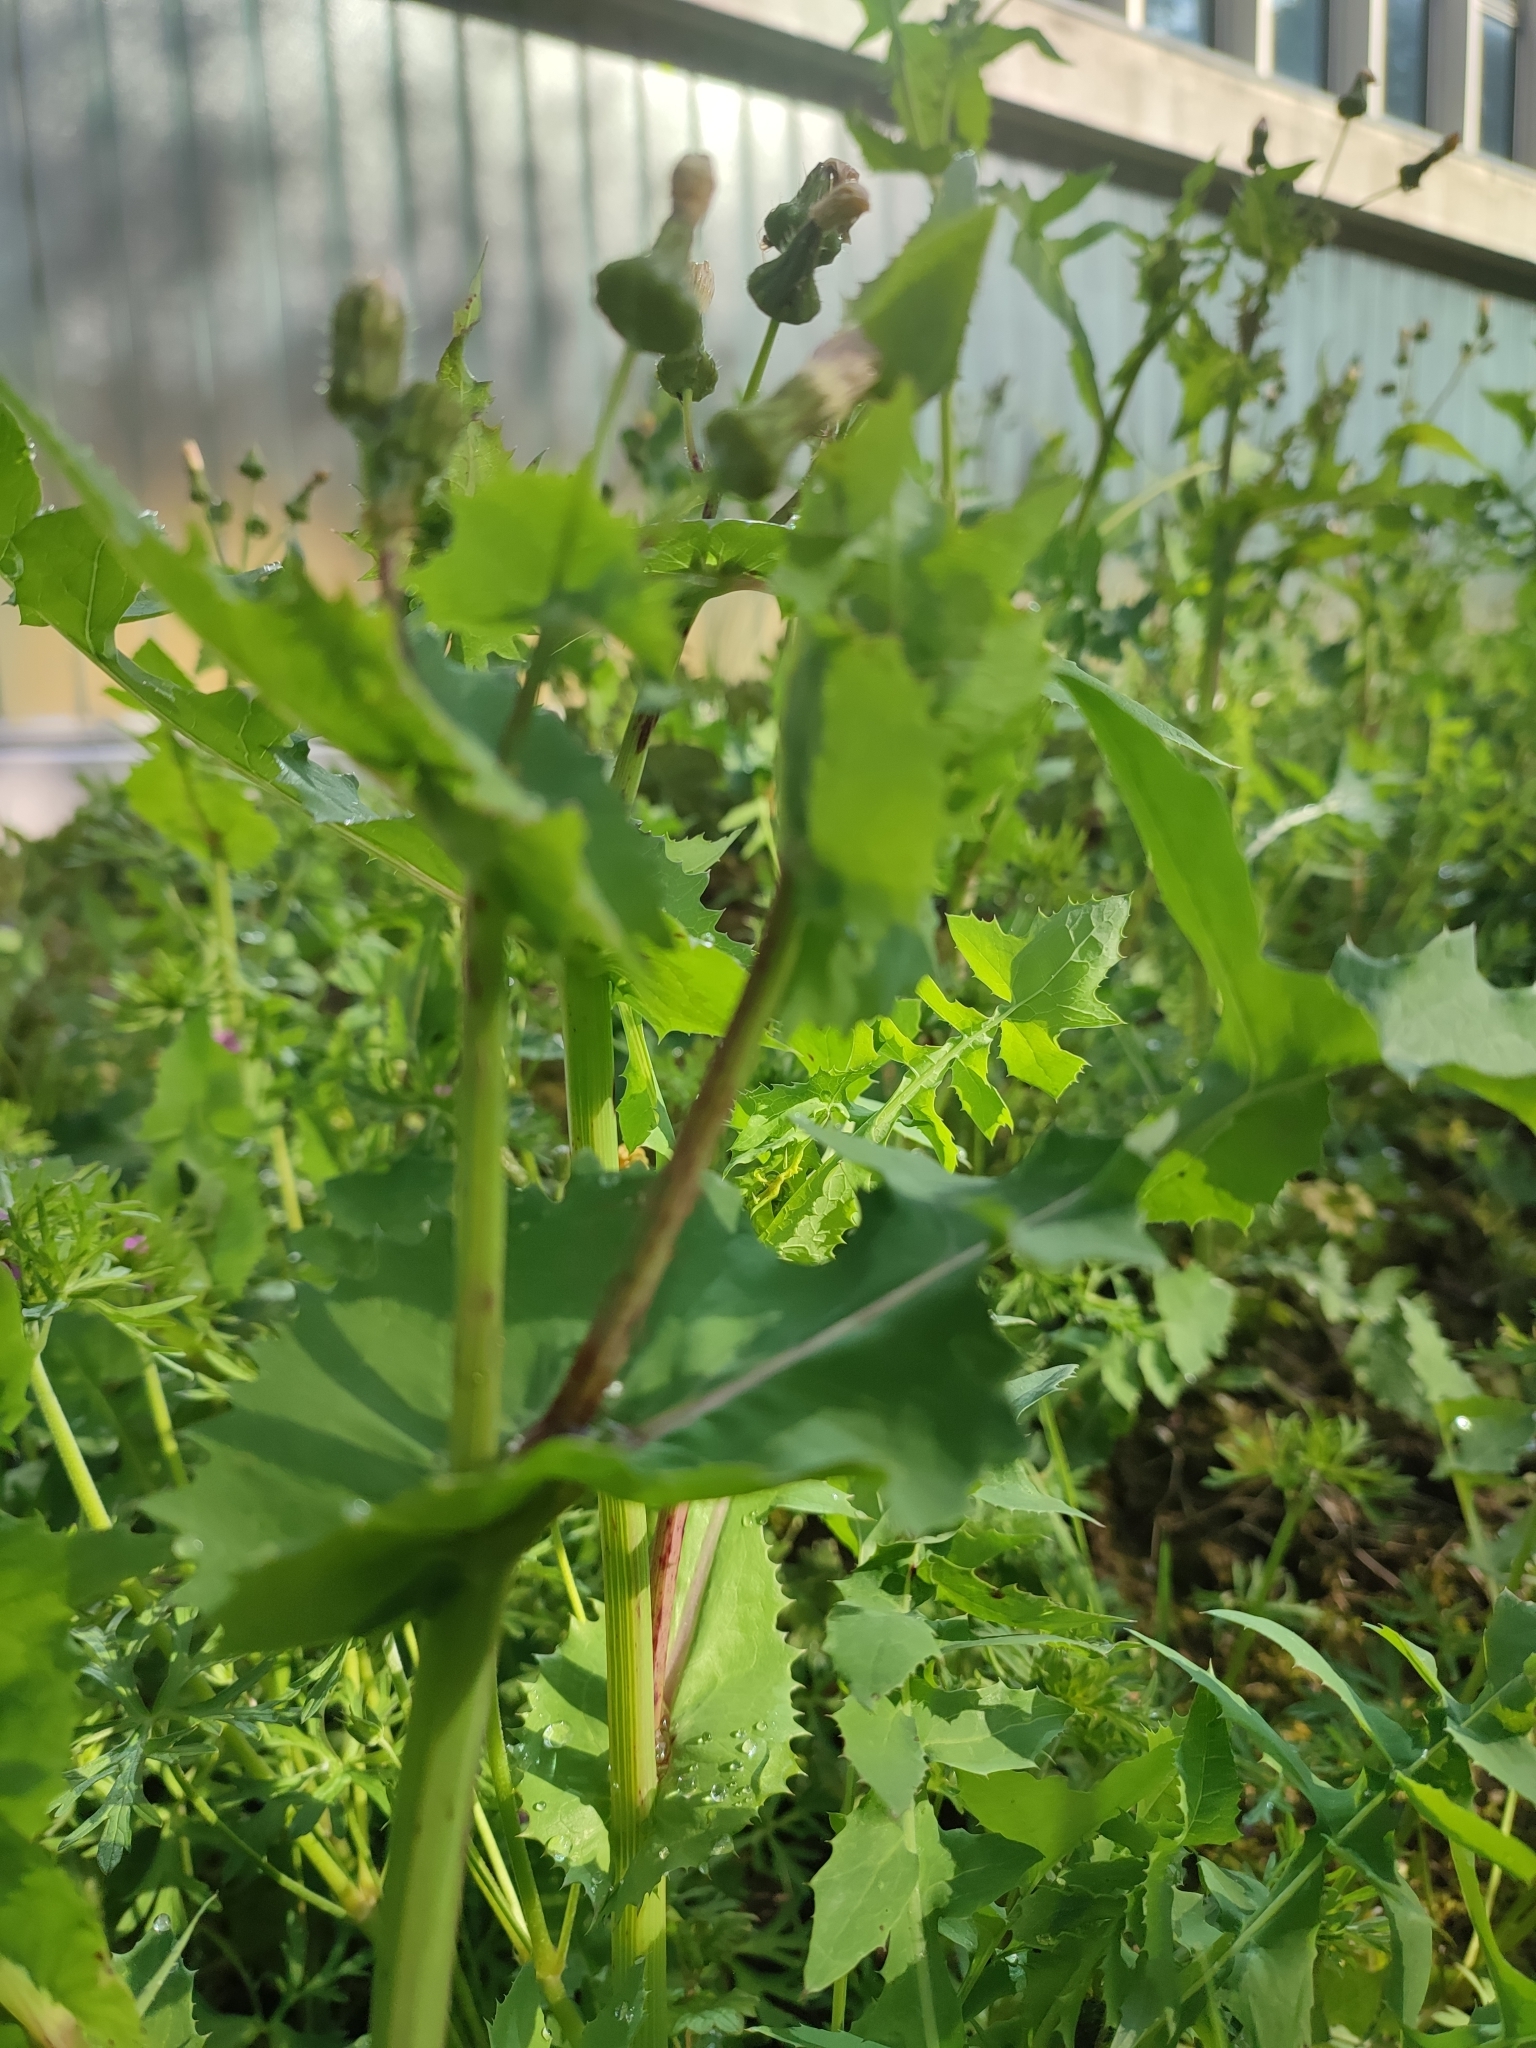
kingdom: Plantae
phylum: Tracheophyta
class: Magnoliopsida
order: Asterales
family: Asteraceae
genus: Sonchus
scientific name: Sonchus oleraceus
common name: Common sowthistle
